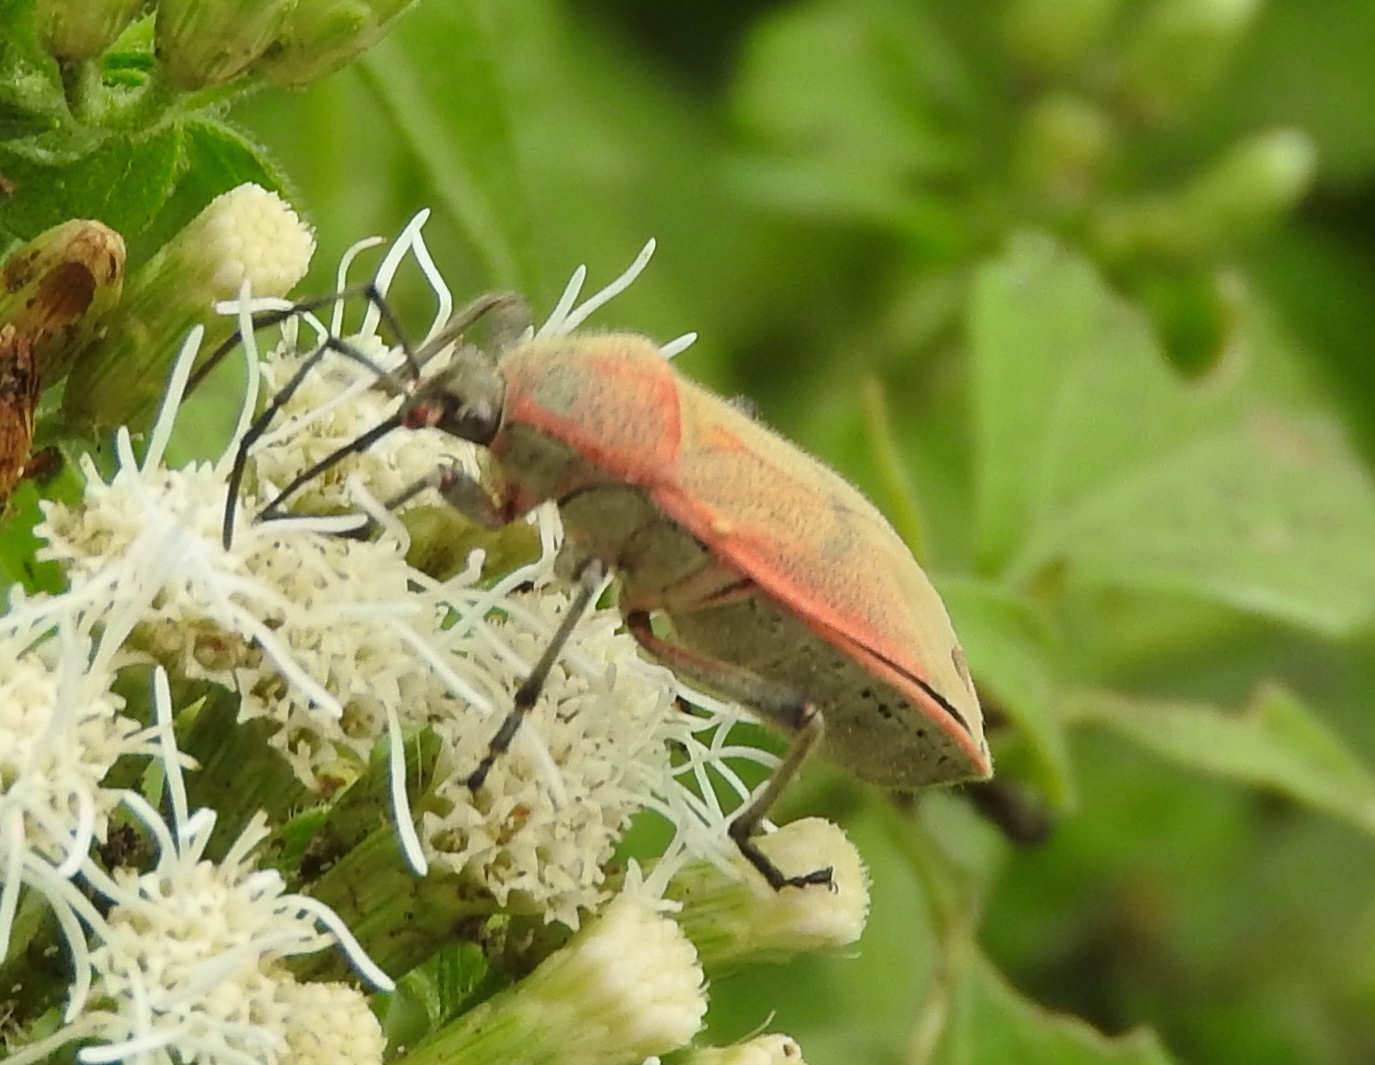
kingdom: Animalia
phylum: Arthropoda
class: Insecta
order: Hemiptera
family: Largidae
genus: Largus
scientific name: Largus
